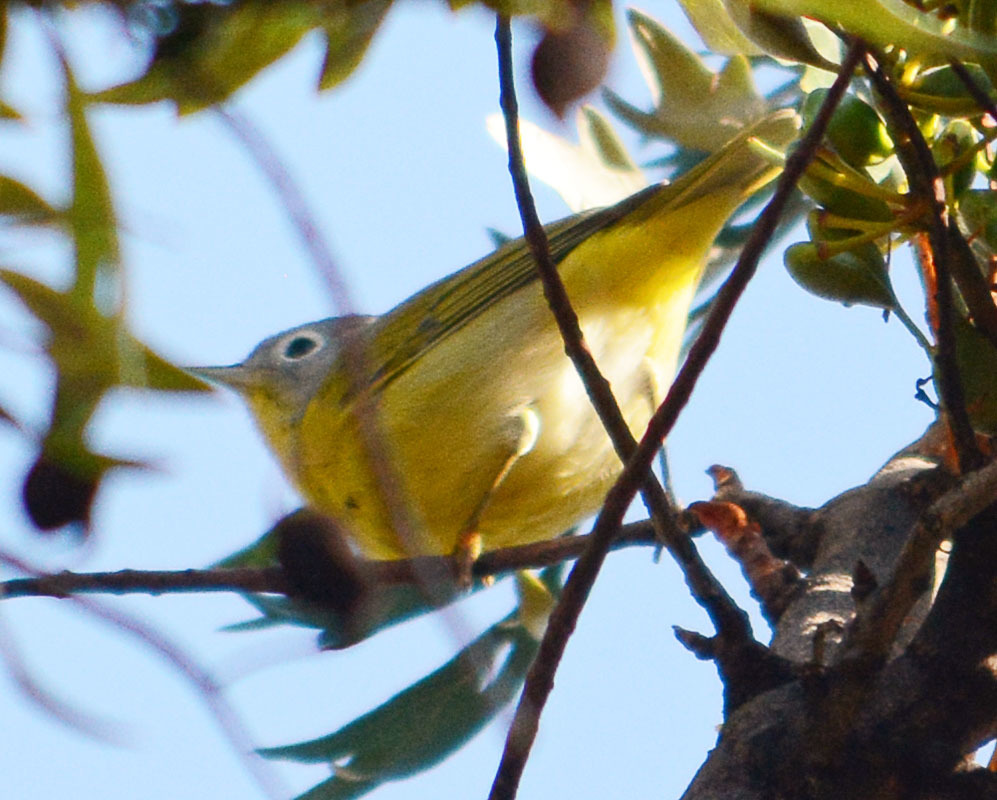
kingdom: Animalia
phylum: Chordata
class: Aves
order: Passeriformes
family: Parulidae
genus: Leiothlypis
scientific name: Leiothlypis ruficapilla
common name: Nashville warbler
